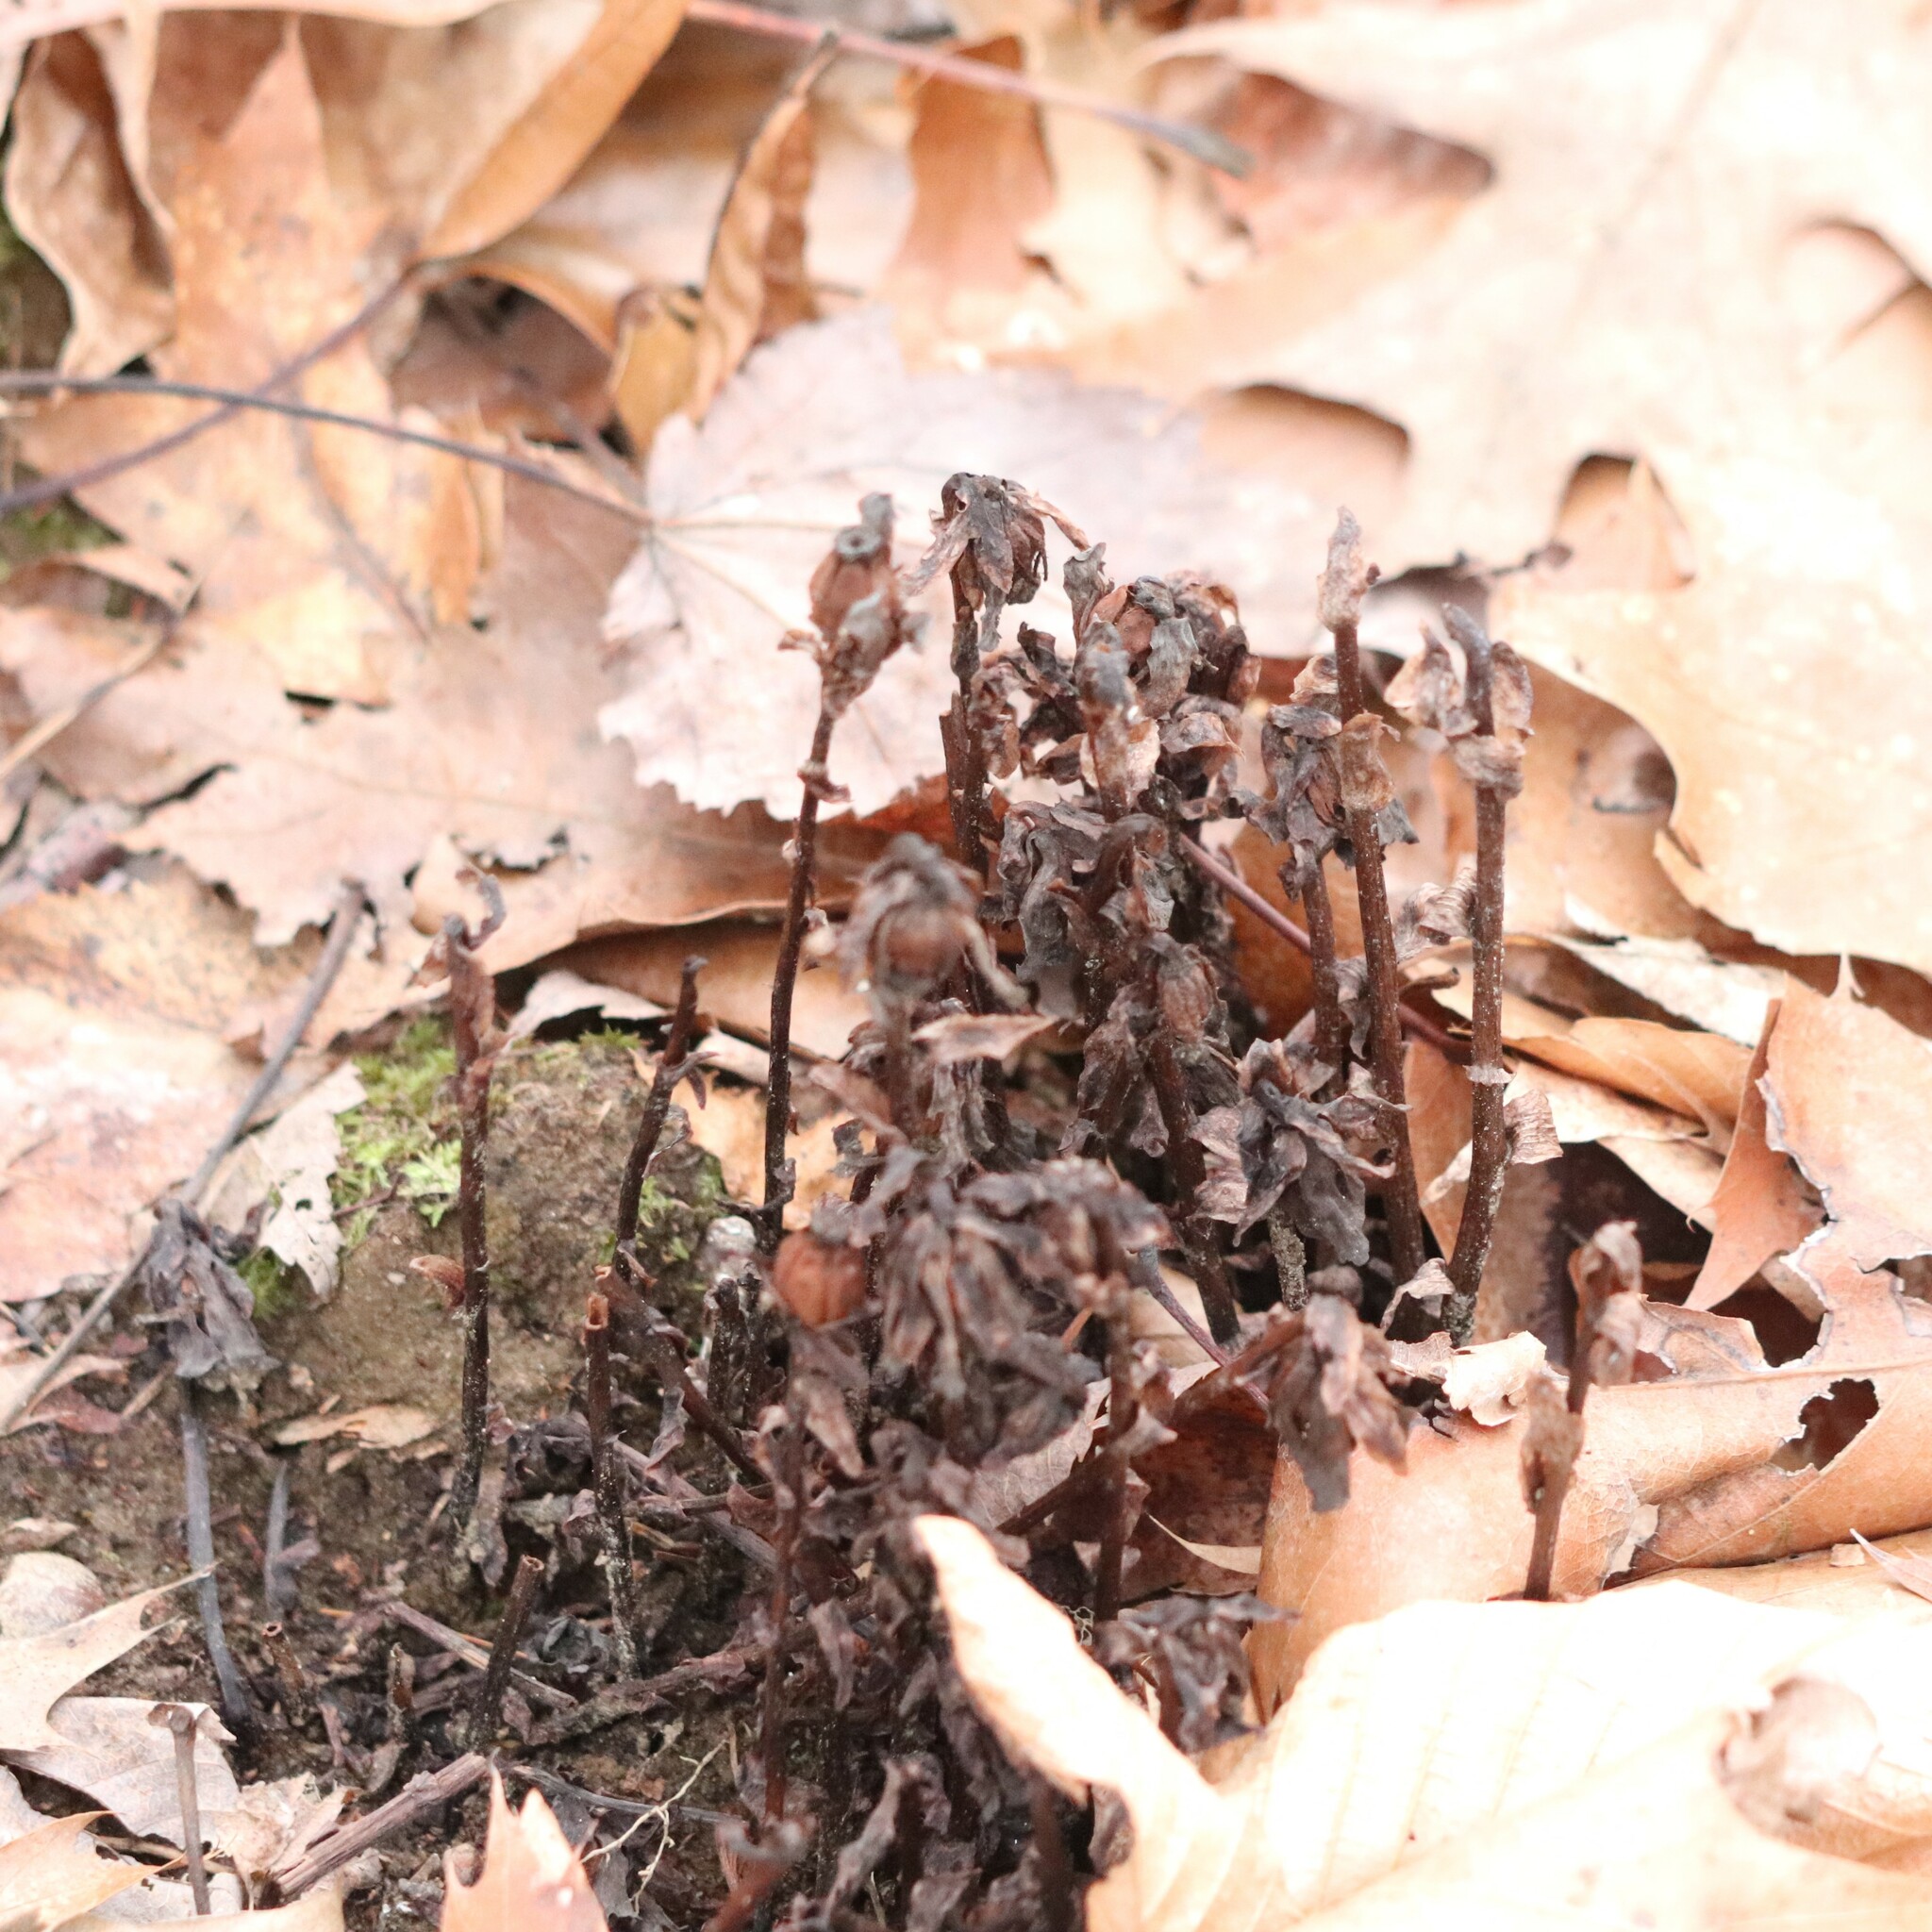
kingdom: Plantae
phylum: Tracheophyta
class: Magnoliopsida
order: Ericales
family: Ericaceae
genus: Monotropa
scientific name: Monotropa uniflora
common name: Convulsion root
